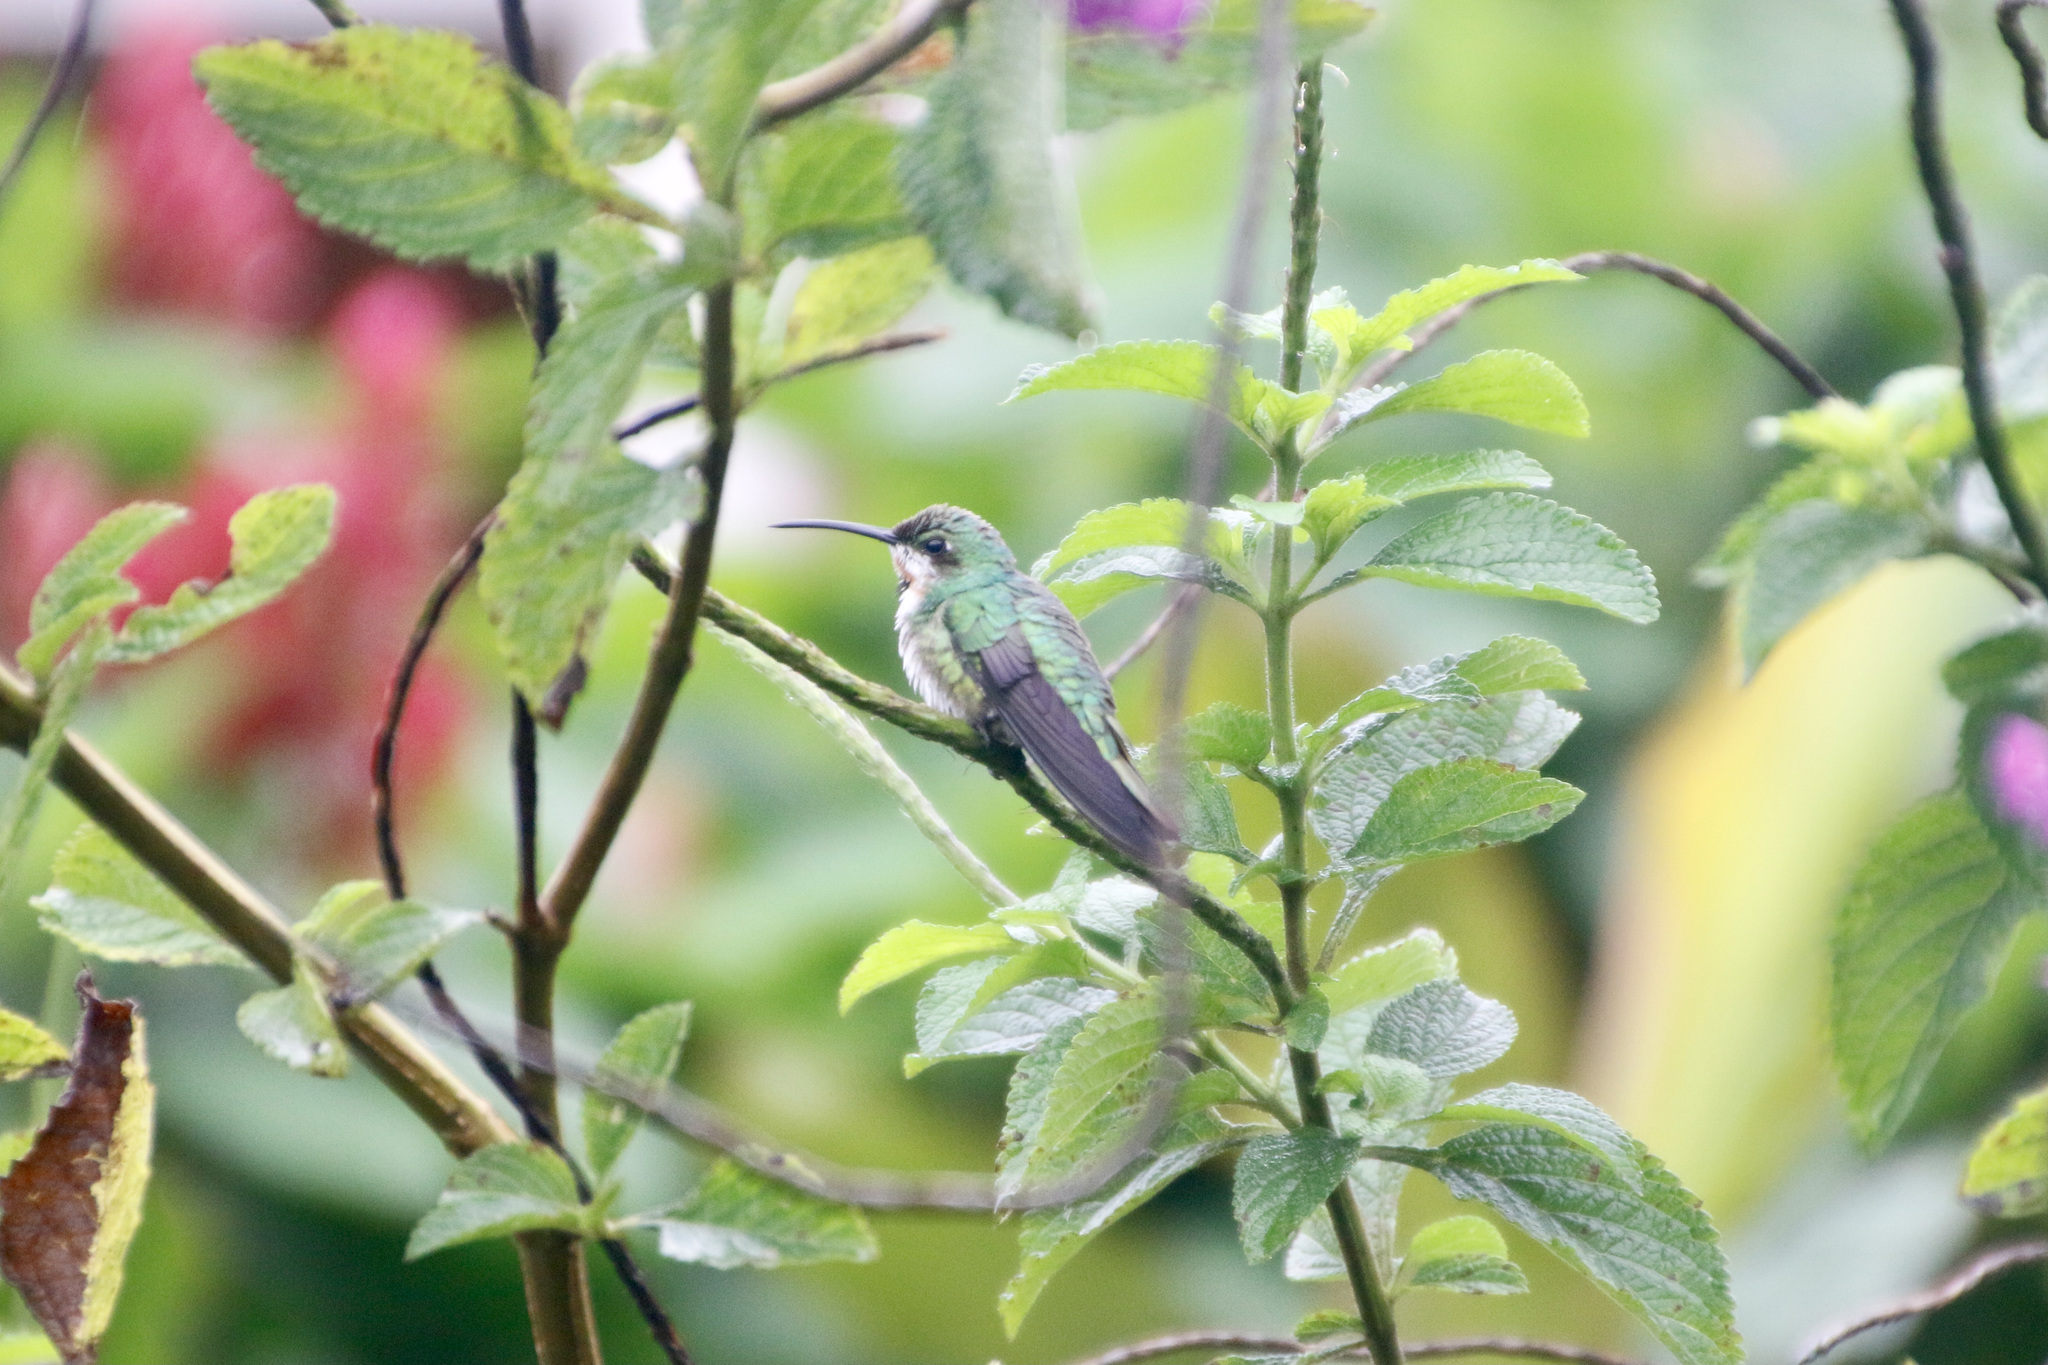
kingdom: Animalia
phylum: Chordata
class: Aves
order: Apodiformes
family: Trochilidae
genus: Anthracothorax
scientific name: Anthracothorax prevostii
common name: Green-breasted mango
